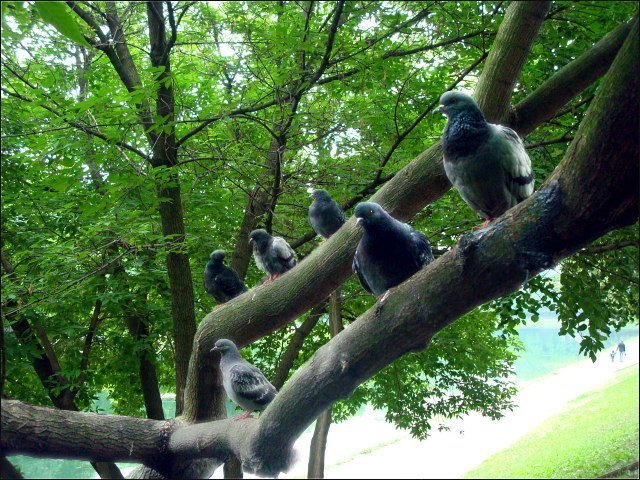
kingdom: Animalia
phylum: Chordata
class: Aves
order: Columbiformes
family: Columbidae
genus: Columba
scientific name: Columba livia
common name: Rock pigeon
